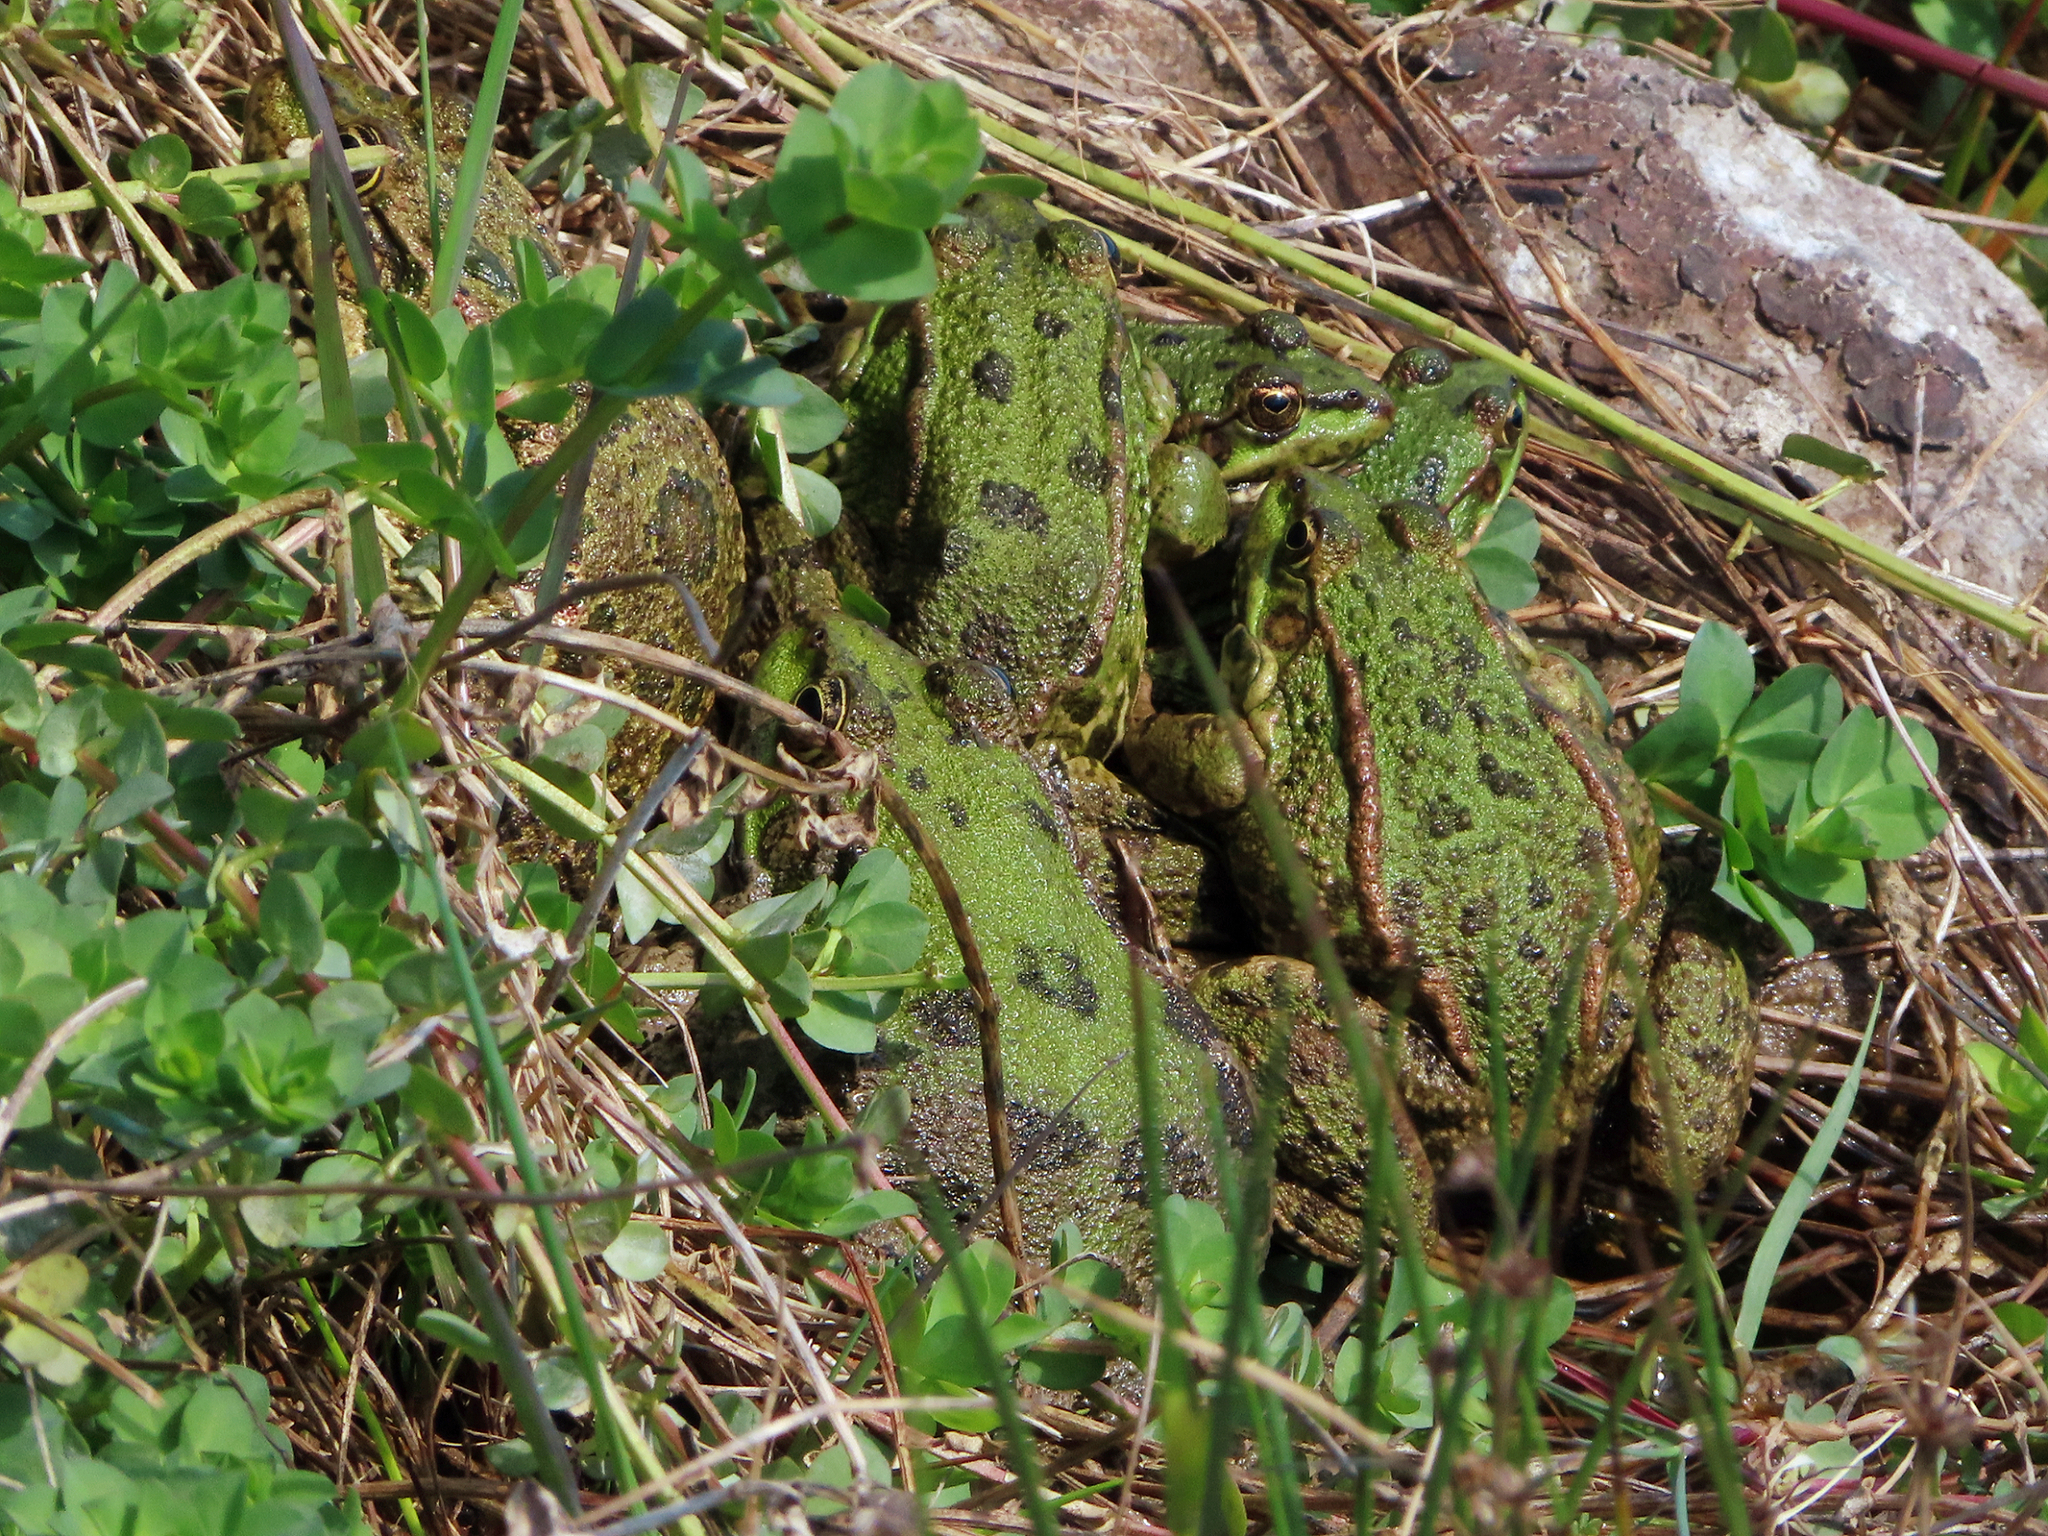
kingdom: Animalia
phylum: Chordata
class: Amphibia
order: Anura
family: Ranidae
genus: Pelophylax
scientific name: Pelophylax ridibundus
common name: Marsh frog
